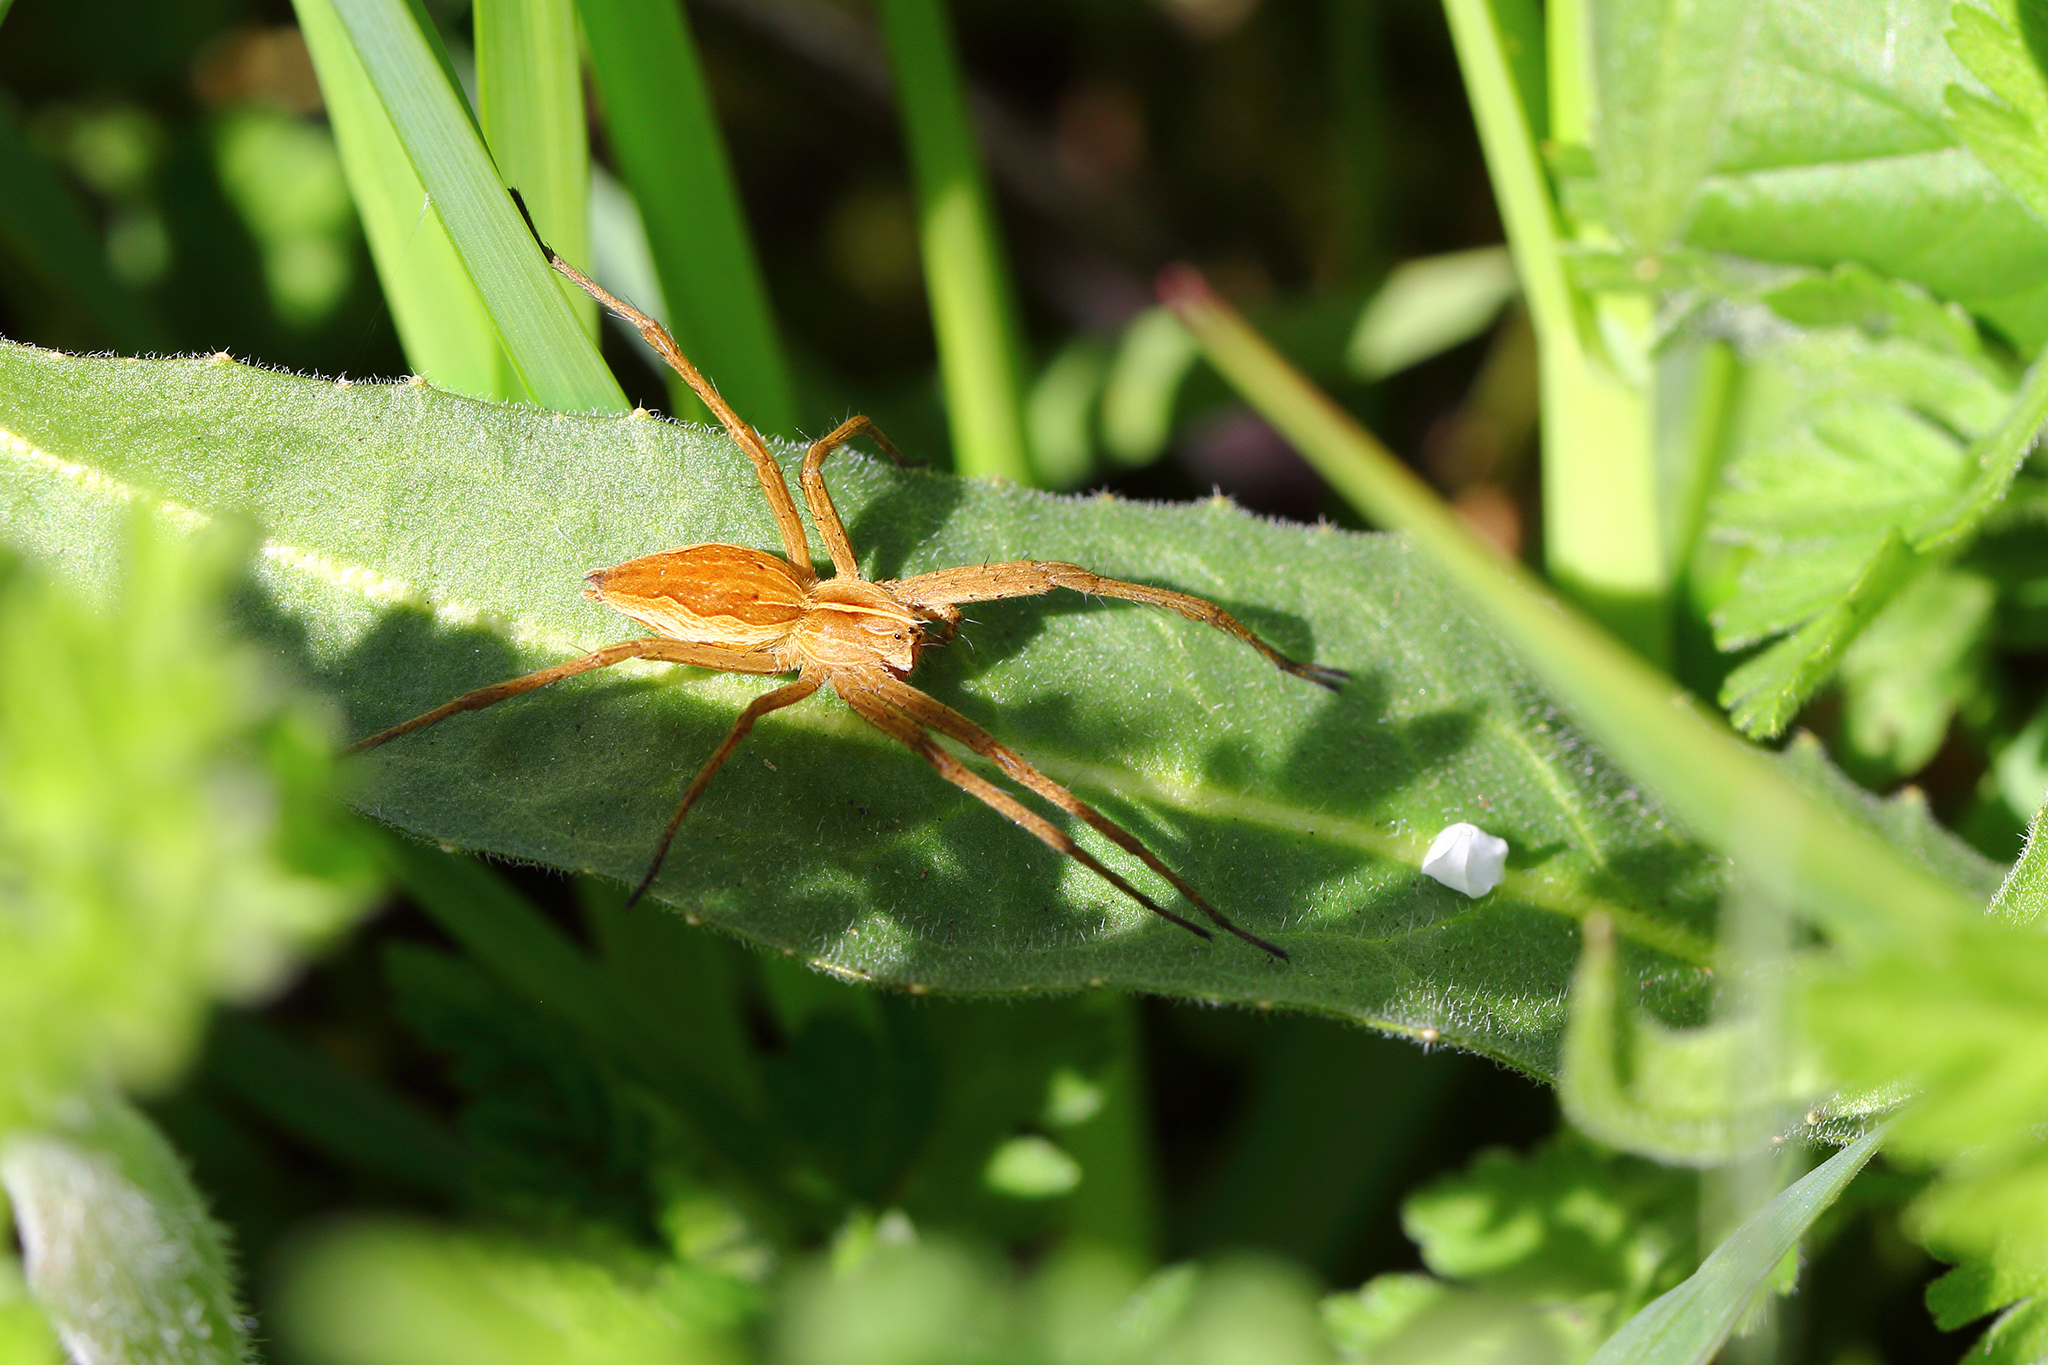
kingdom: Animalia
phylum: Arthropoda
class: Arachnida
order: Araneae
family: Pisauridae
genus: Pisaura
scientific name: Pisaura mirabilis
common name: Tent spider
